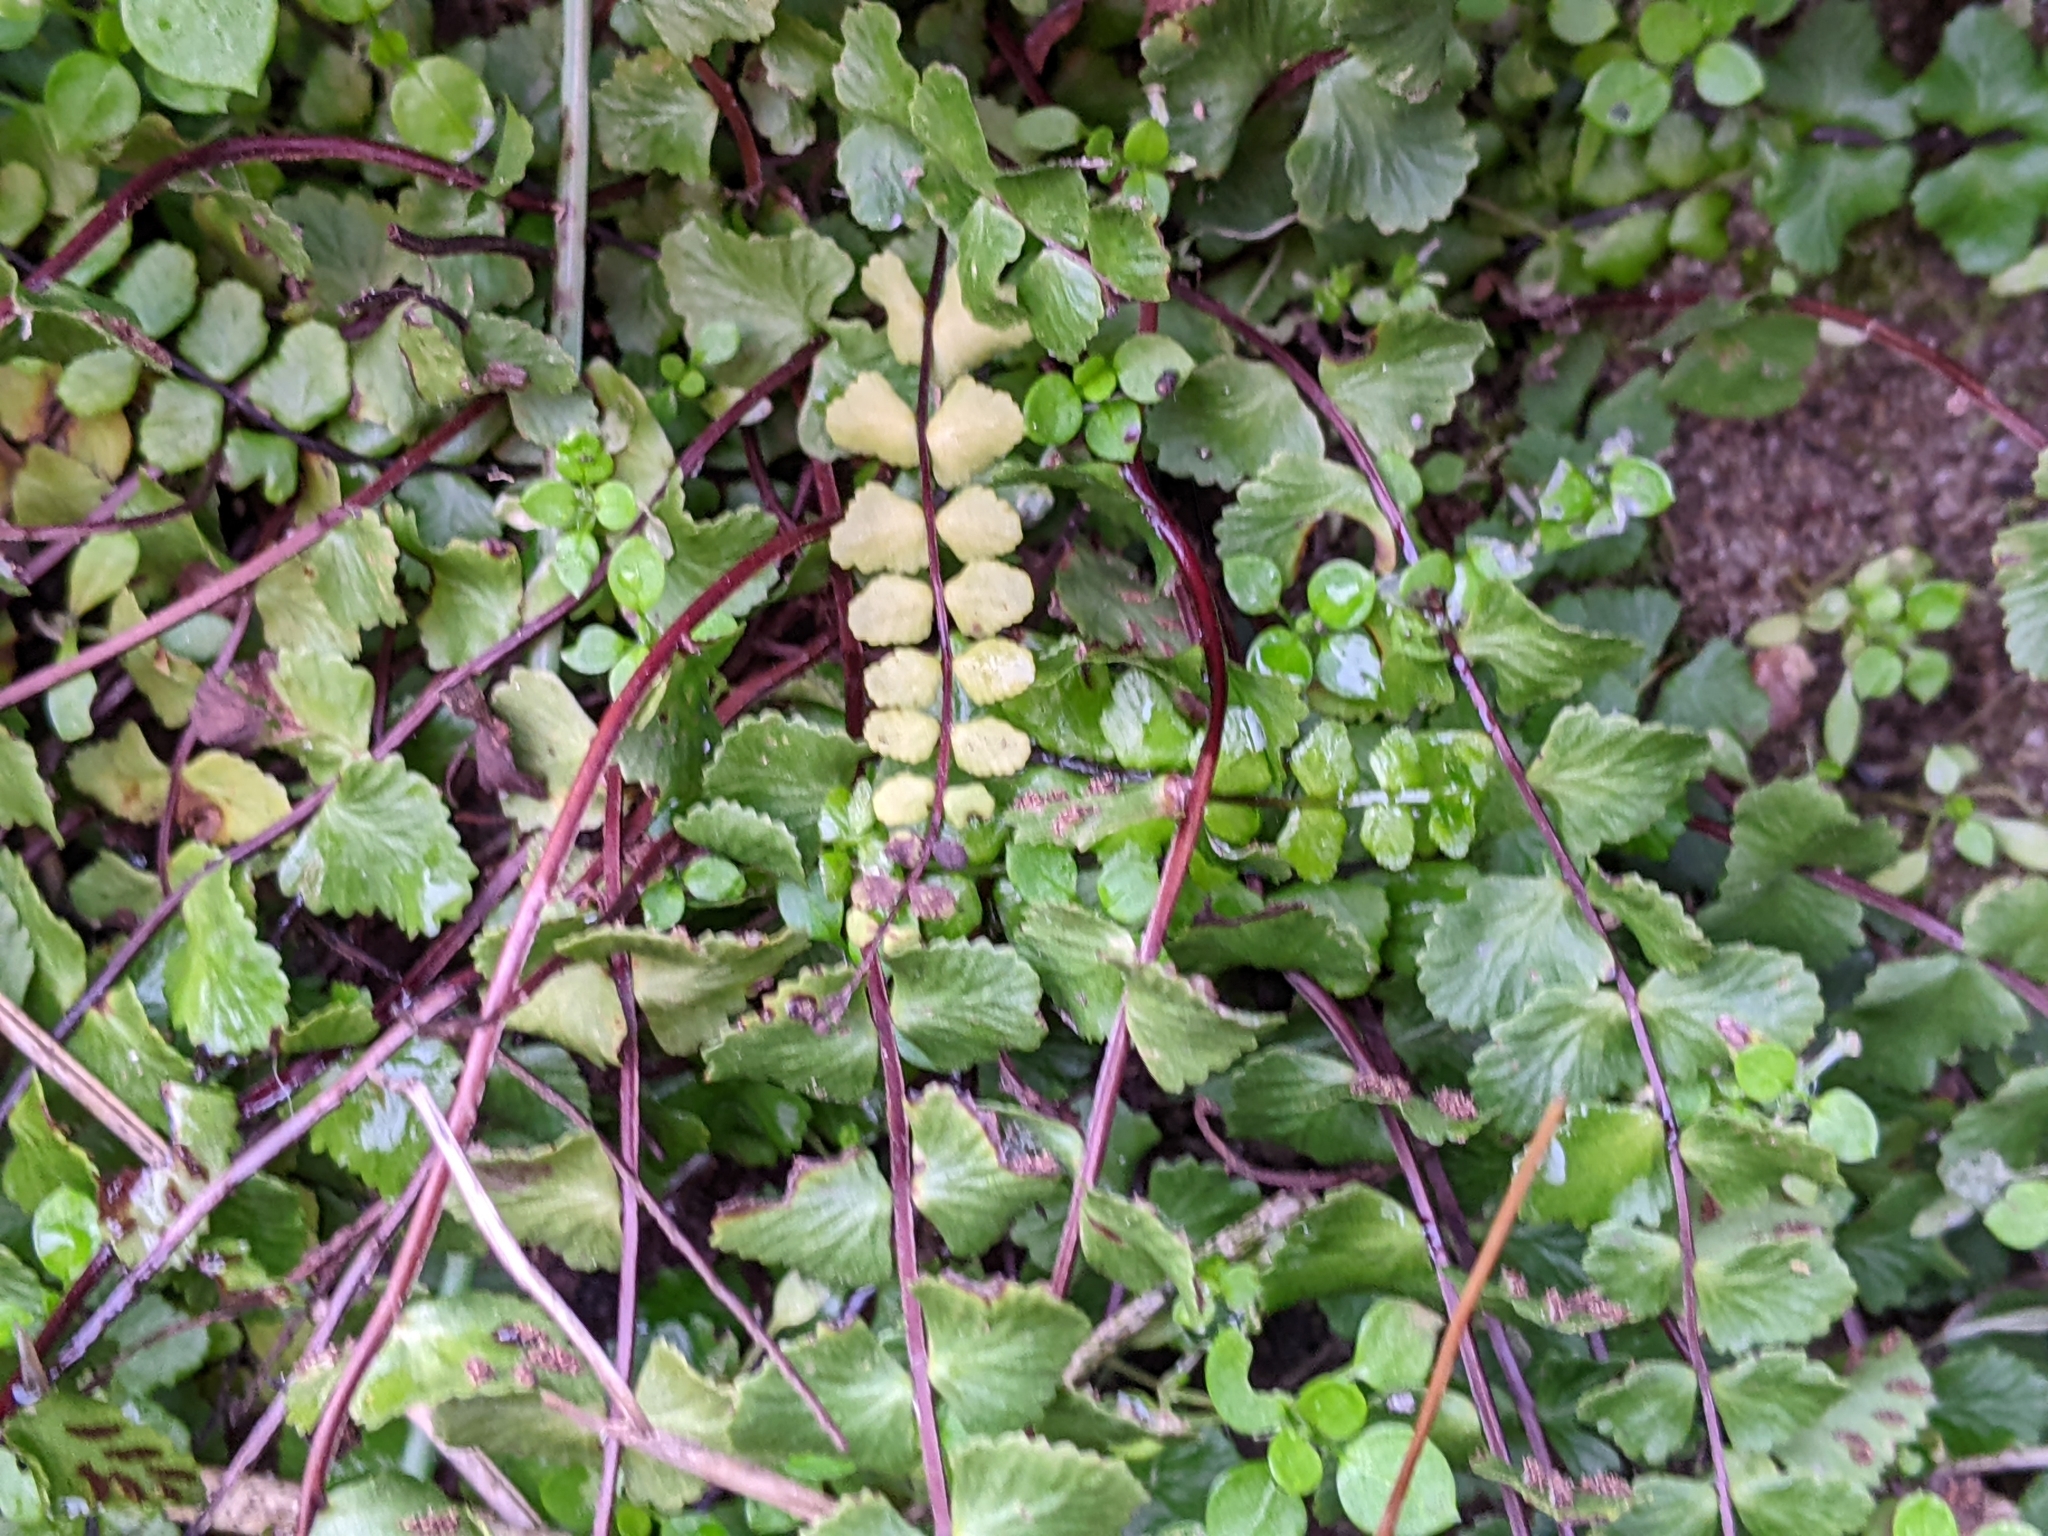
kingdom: Plantae
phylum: Tracheophyta
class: Polypodiopsida
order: Polypodiales
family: Aspleniaceae
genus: Asplenium
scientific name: Asplenium trichomanes
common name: Maidenhair spleenwort
